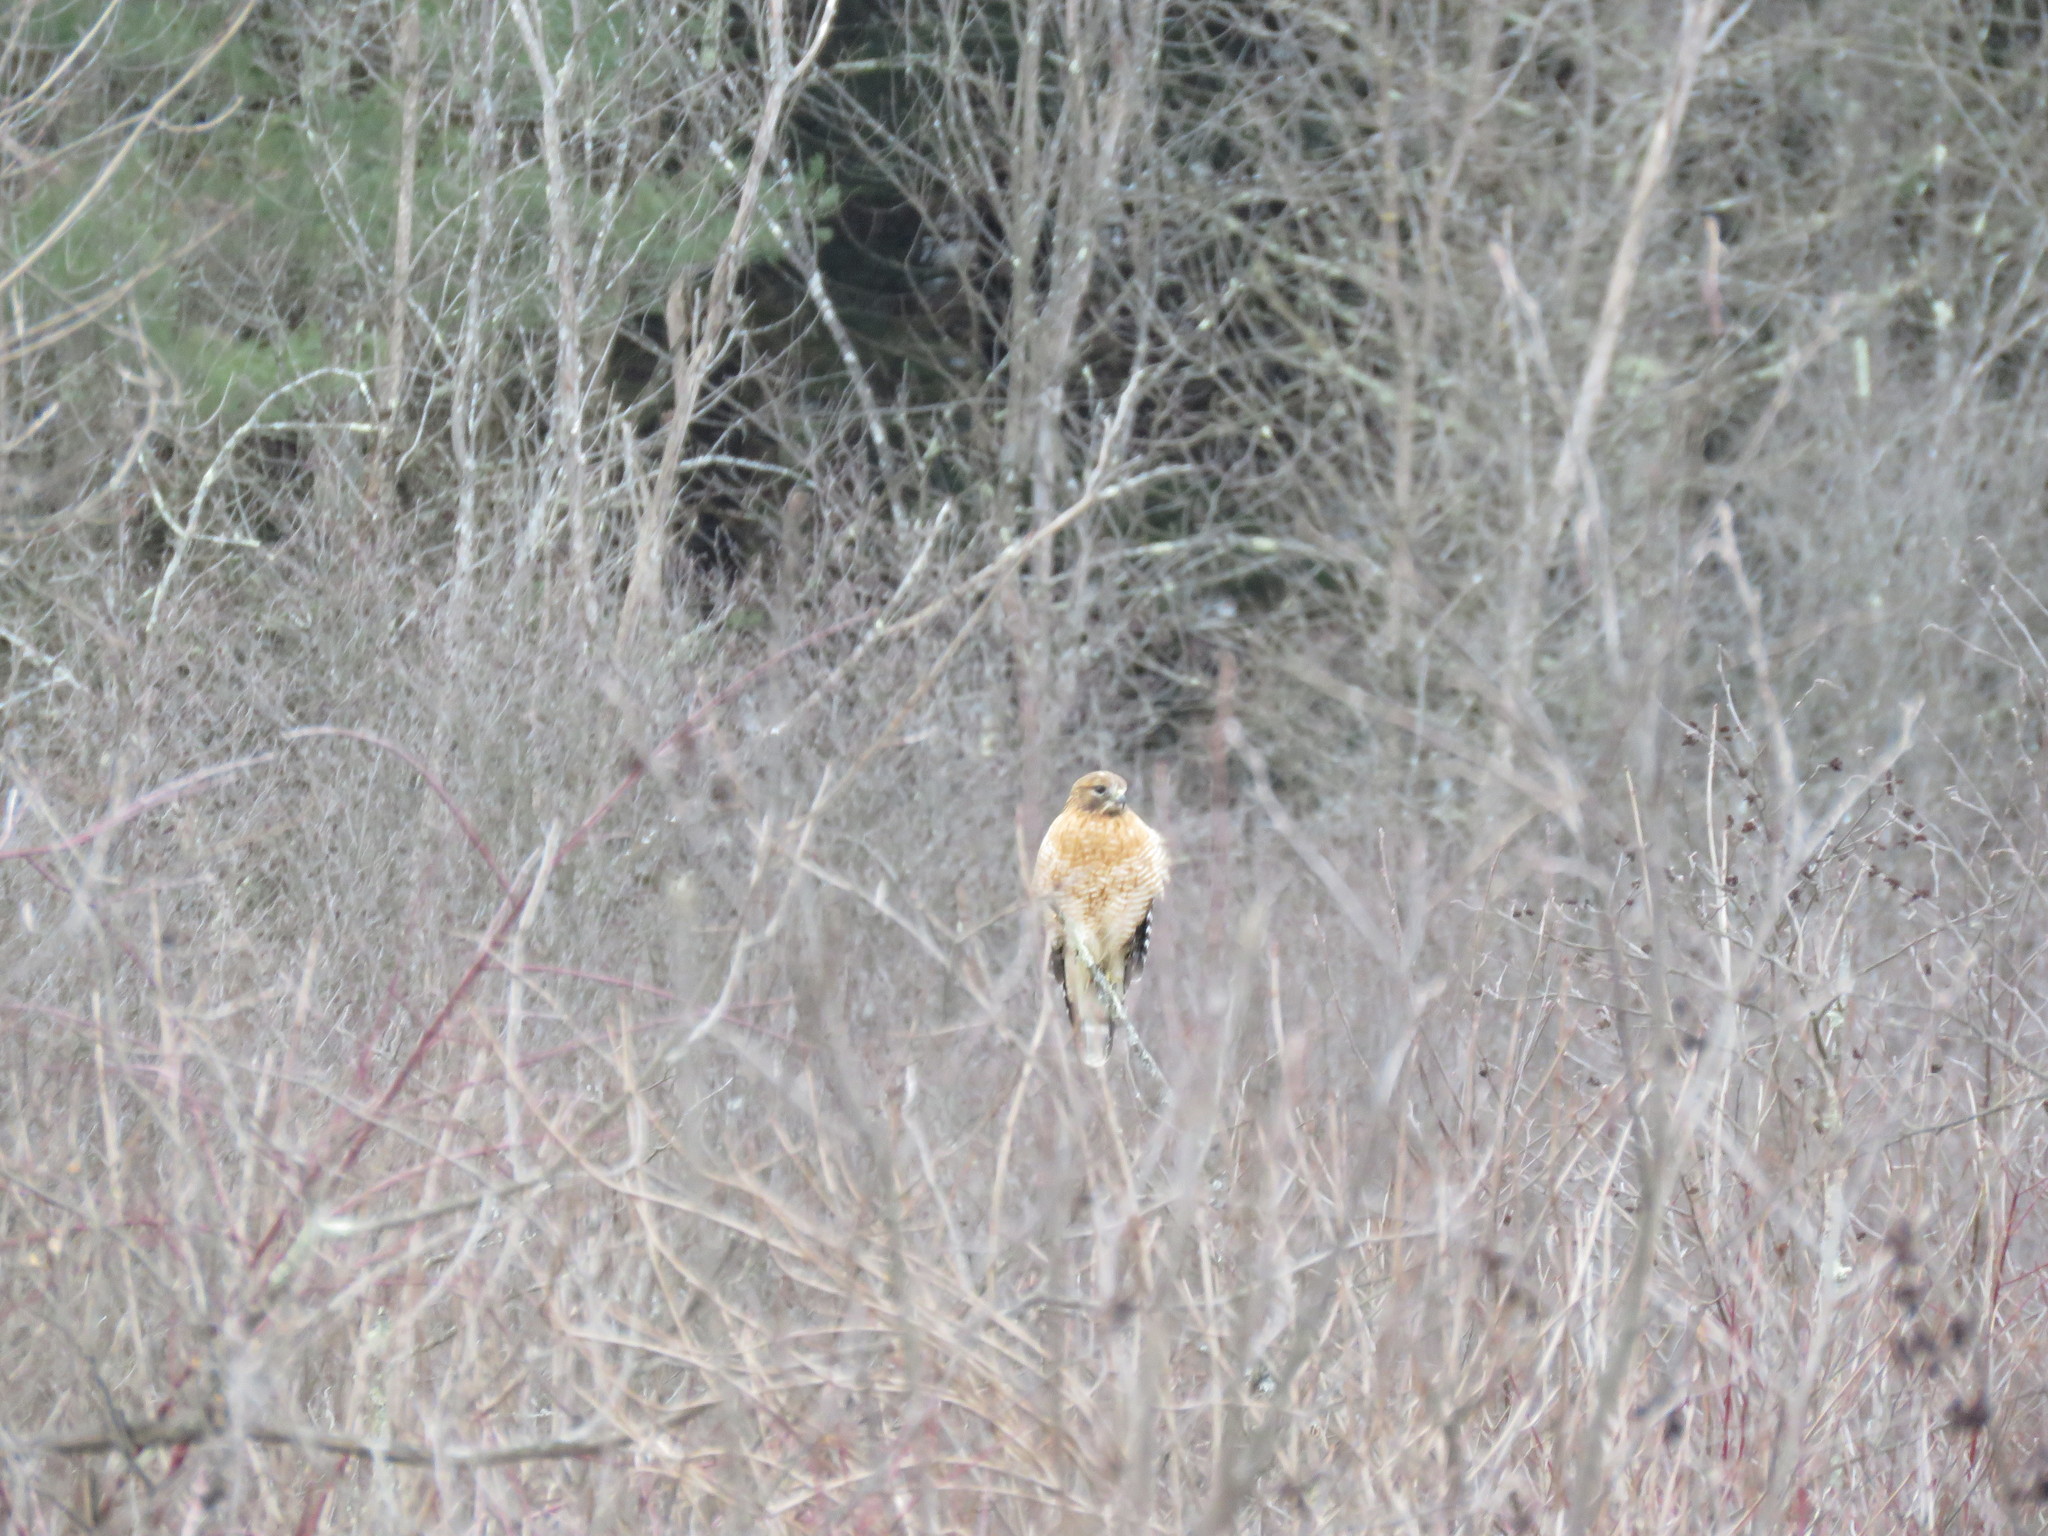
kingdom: Animalia
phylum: Chordata
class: Aves
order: Accipitriformes
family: Accipitridae
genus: Buteo
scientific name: Buteo lineatus
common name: Red-shouldered hawk
